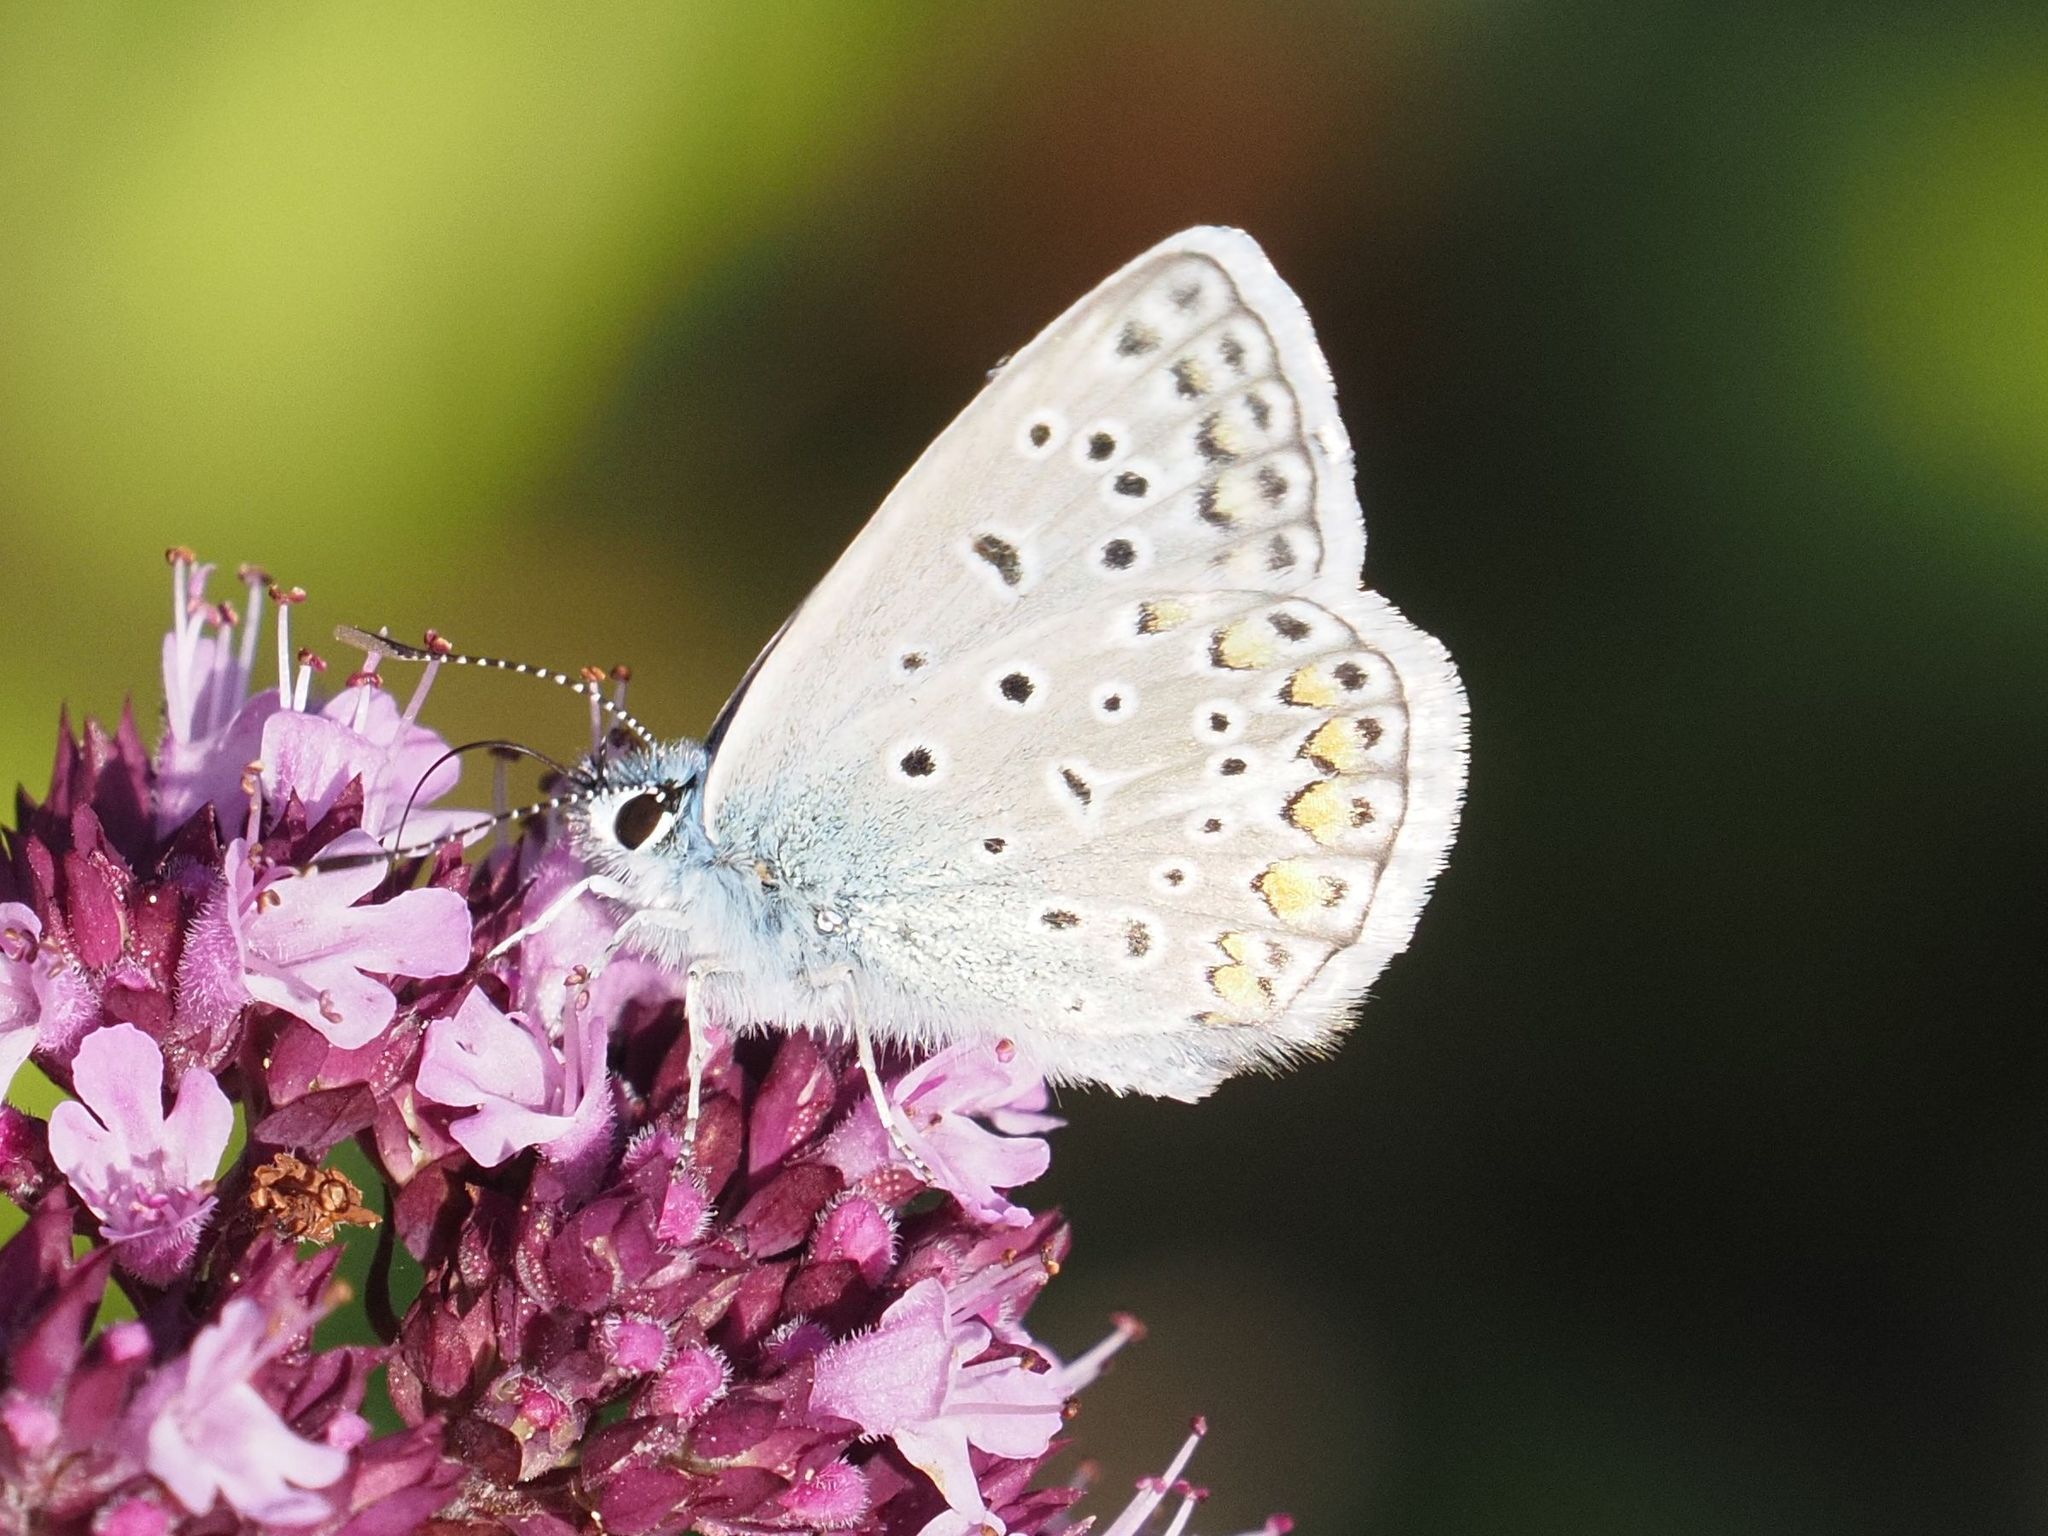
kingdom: Animalia
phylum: Arthropoda
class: Insecta
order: Lepidoptera
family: Lycaenidae
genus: Polyommatus
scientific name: Polyommatus icarus
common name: Common blue
